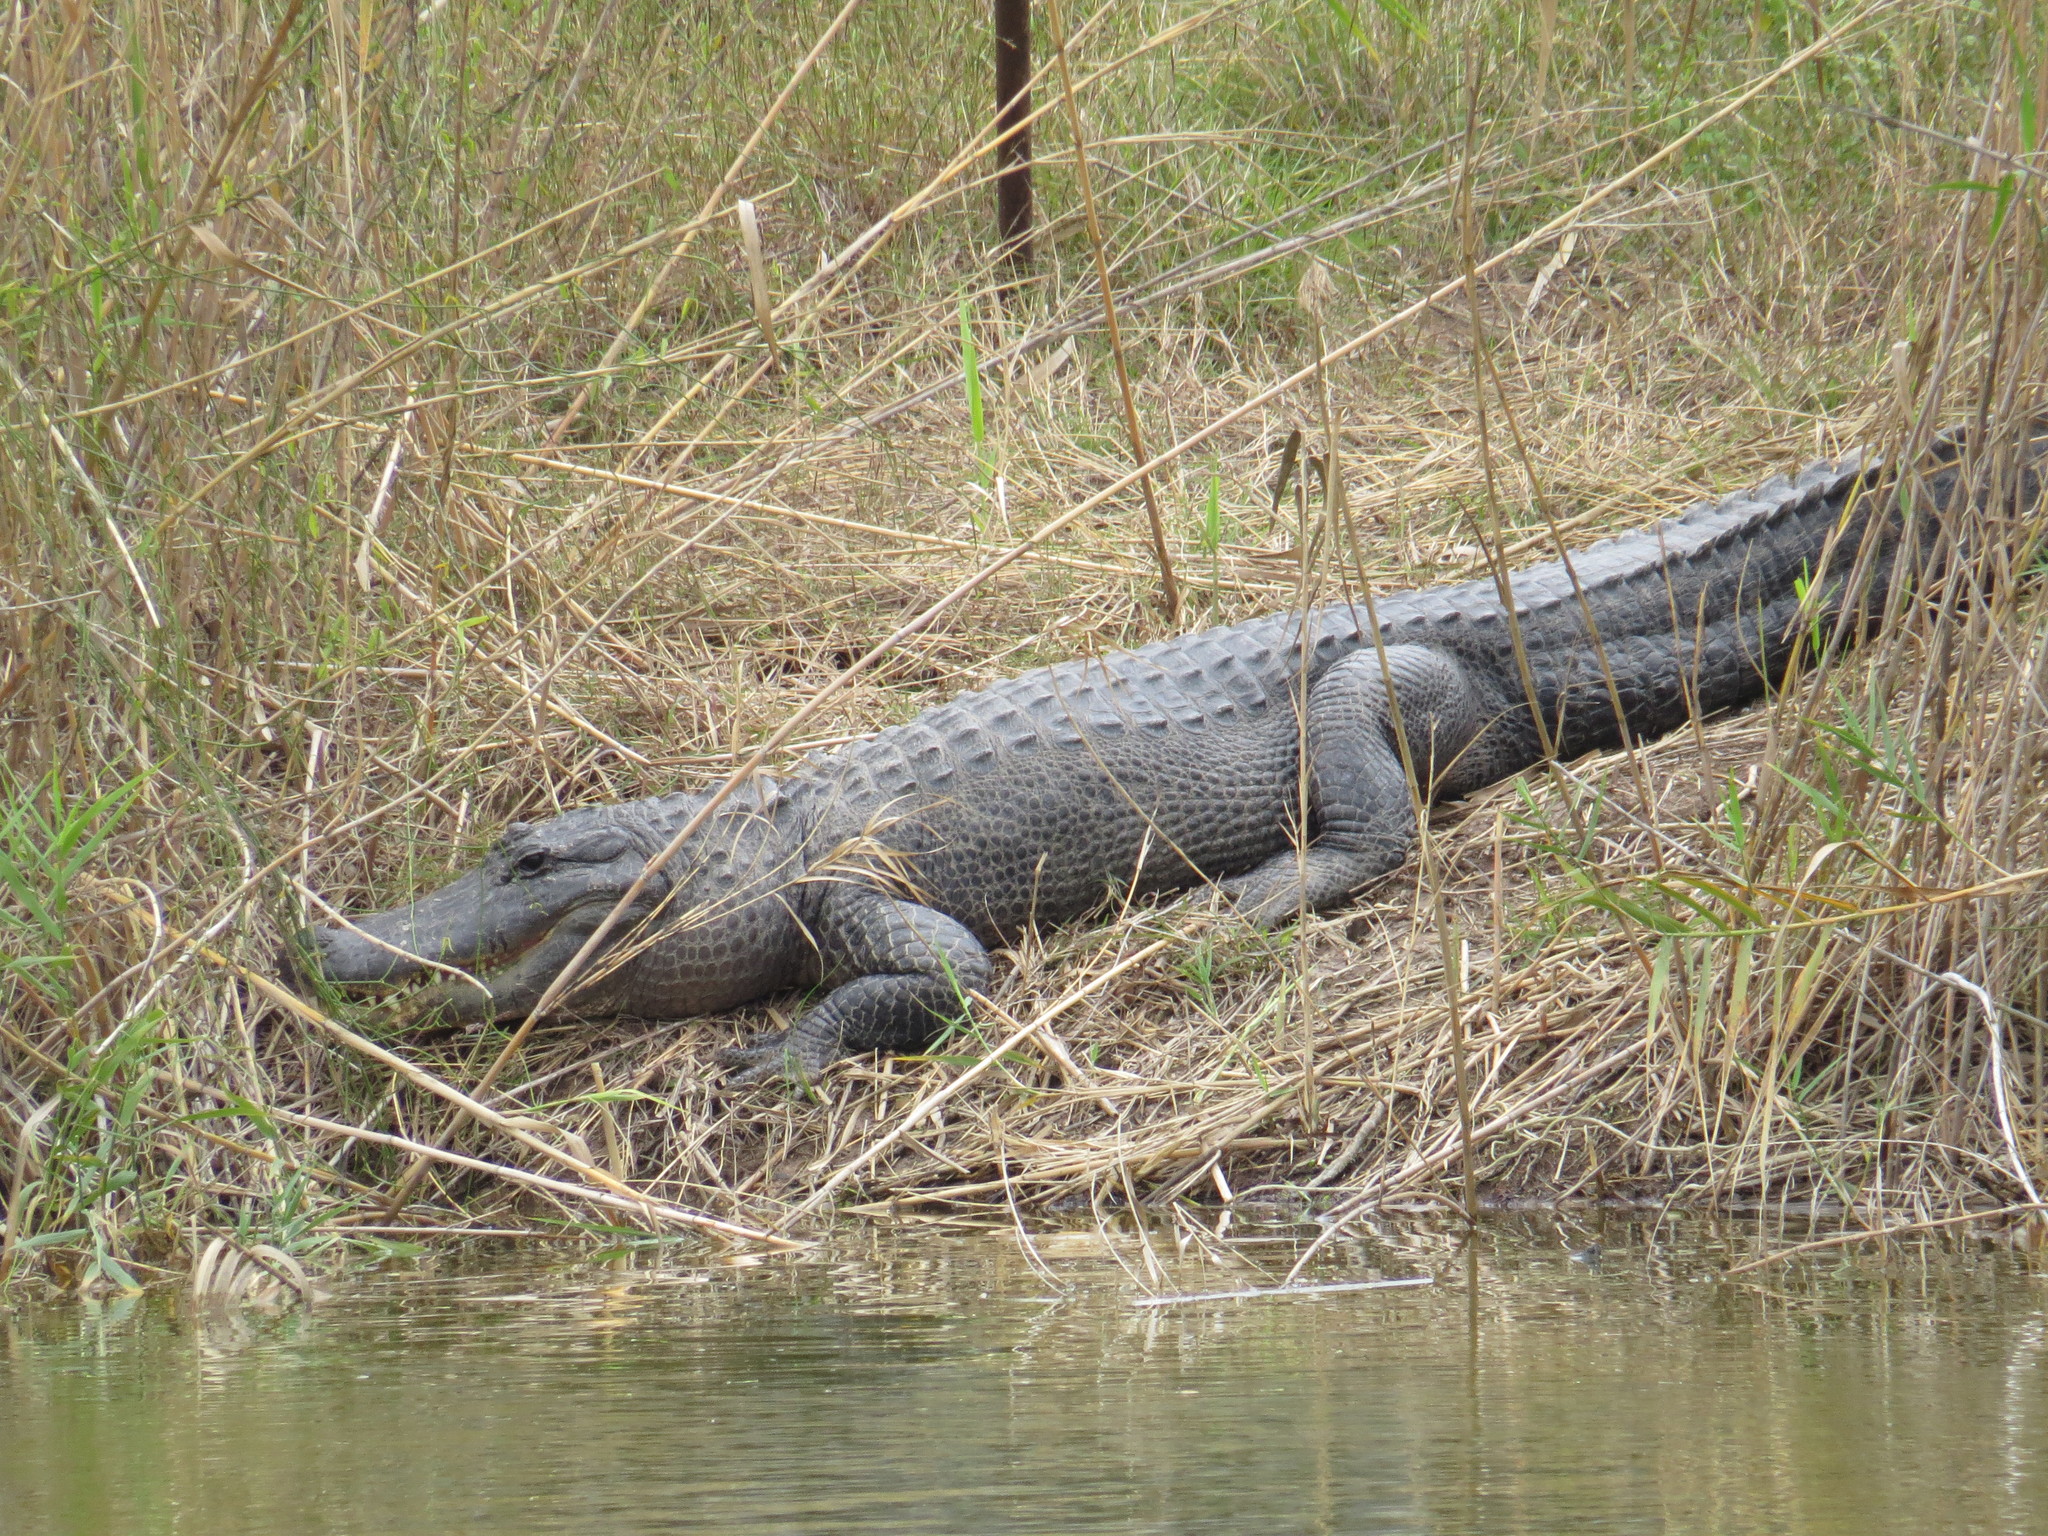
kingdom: Animalia
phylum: Chordata
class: Crocodylia
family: Alligatoridae
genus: Alligator
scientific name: Alligator mississippiensis
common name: American alligator
